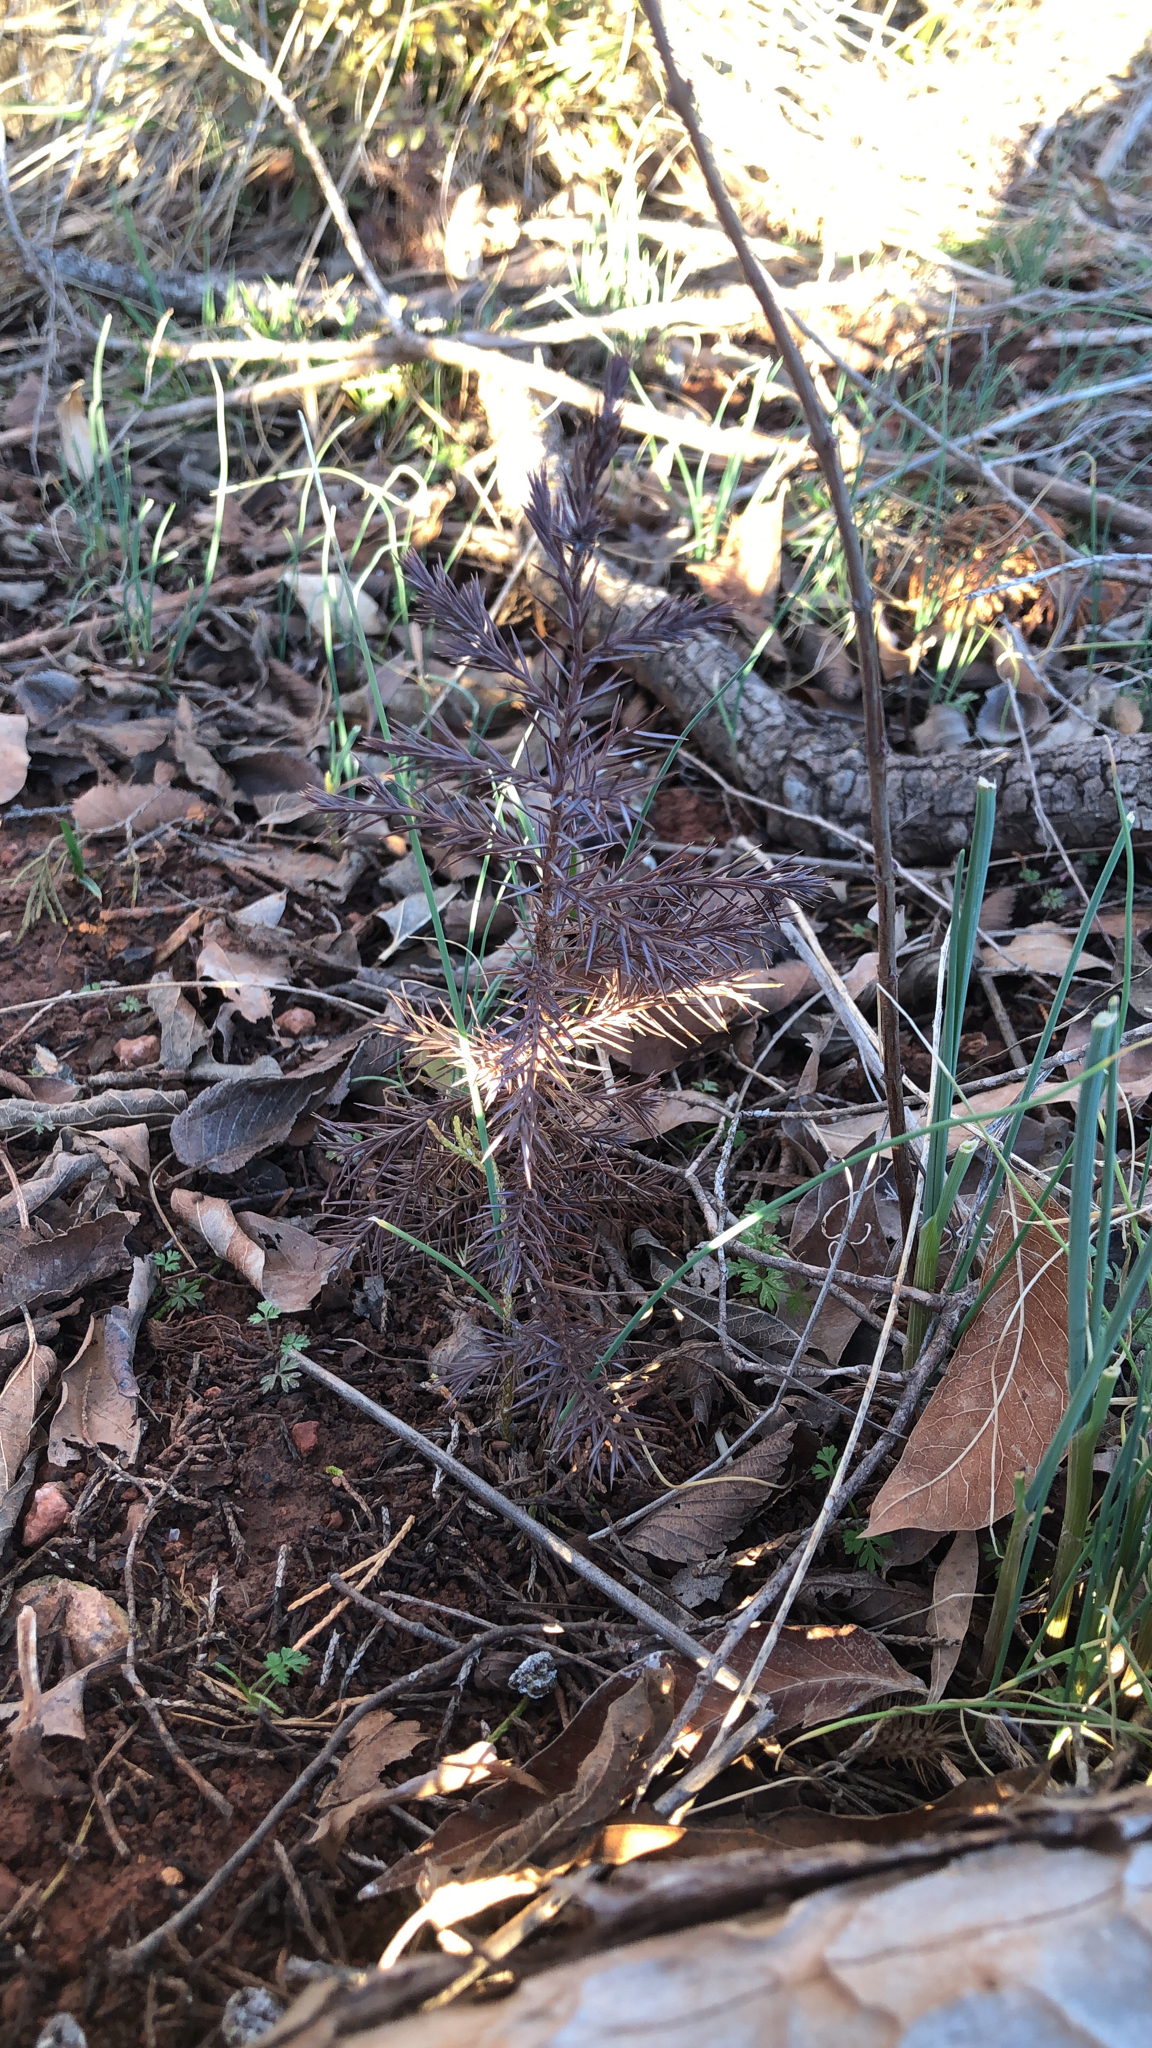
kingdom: Plantae
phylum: Tracheophyta
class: Pinopsida
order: Pinales
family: Cupressaceae
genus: Juniperus
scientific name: Juniperus virginiana
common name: Red juniper
